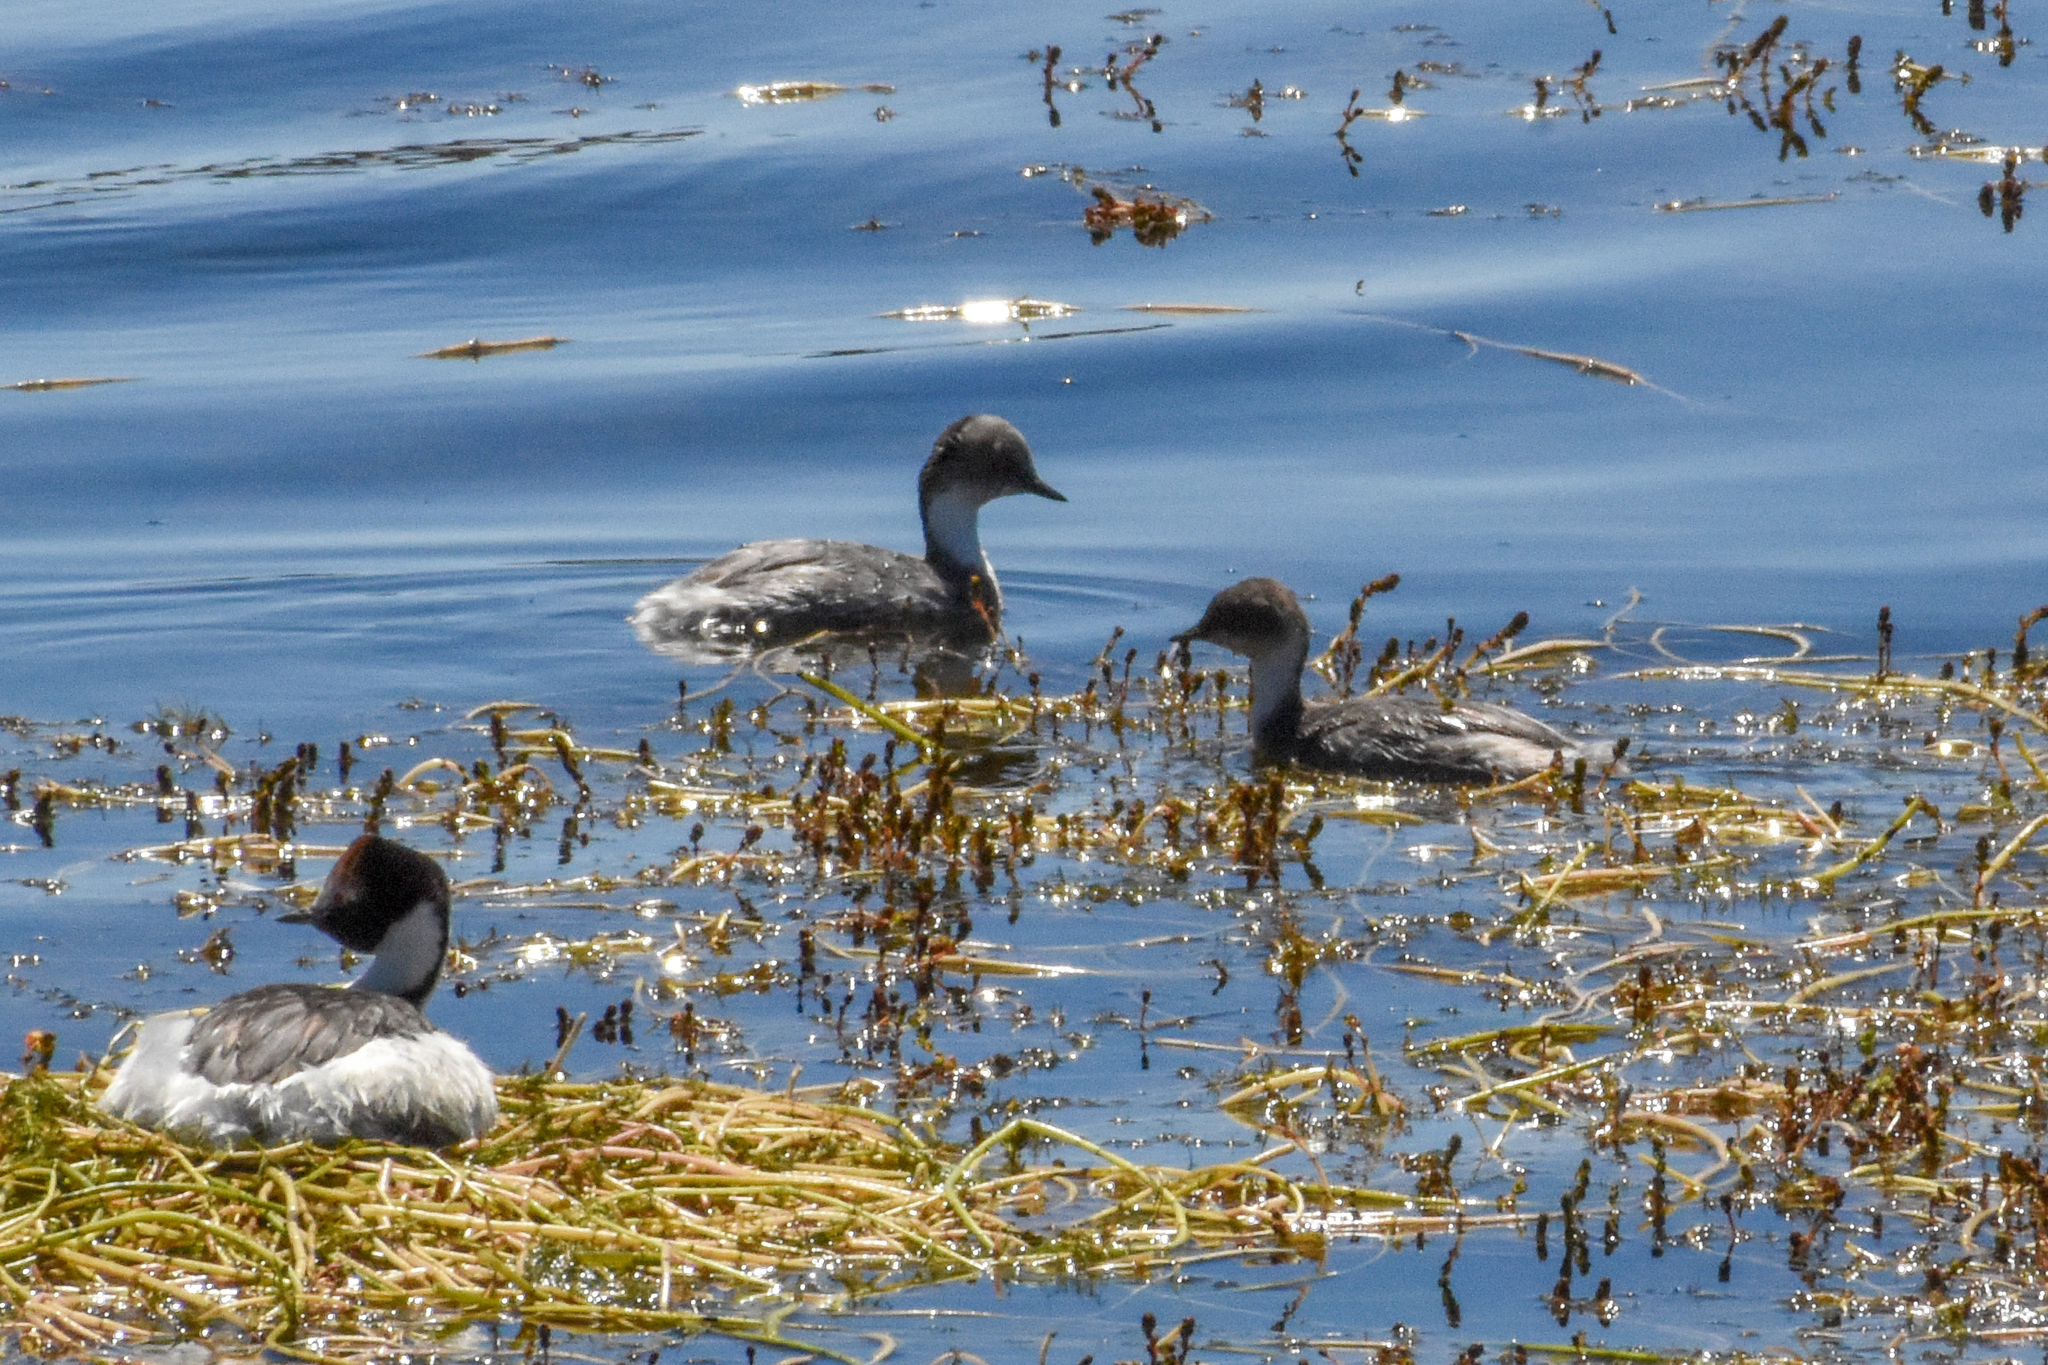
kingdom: Animalia
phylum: Chordata
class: Aves
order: Podicipediformes
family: Podicipedidae
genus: Podiceps
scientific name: Podiceps occipitalis
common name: Silvery grebe
